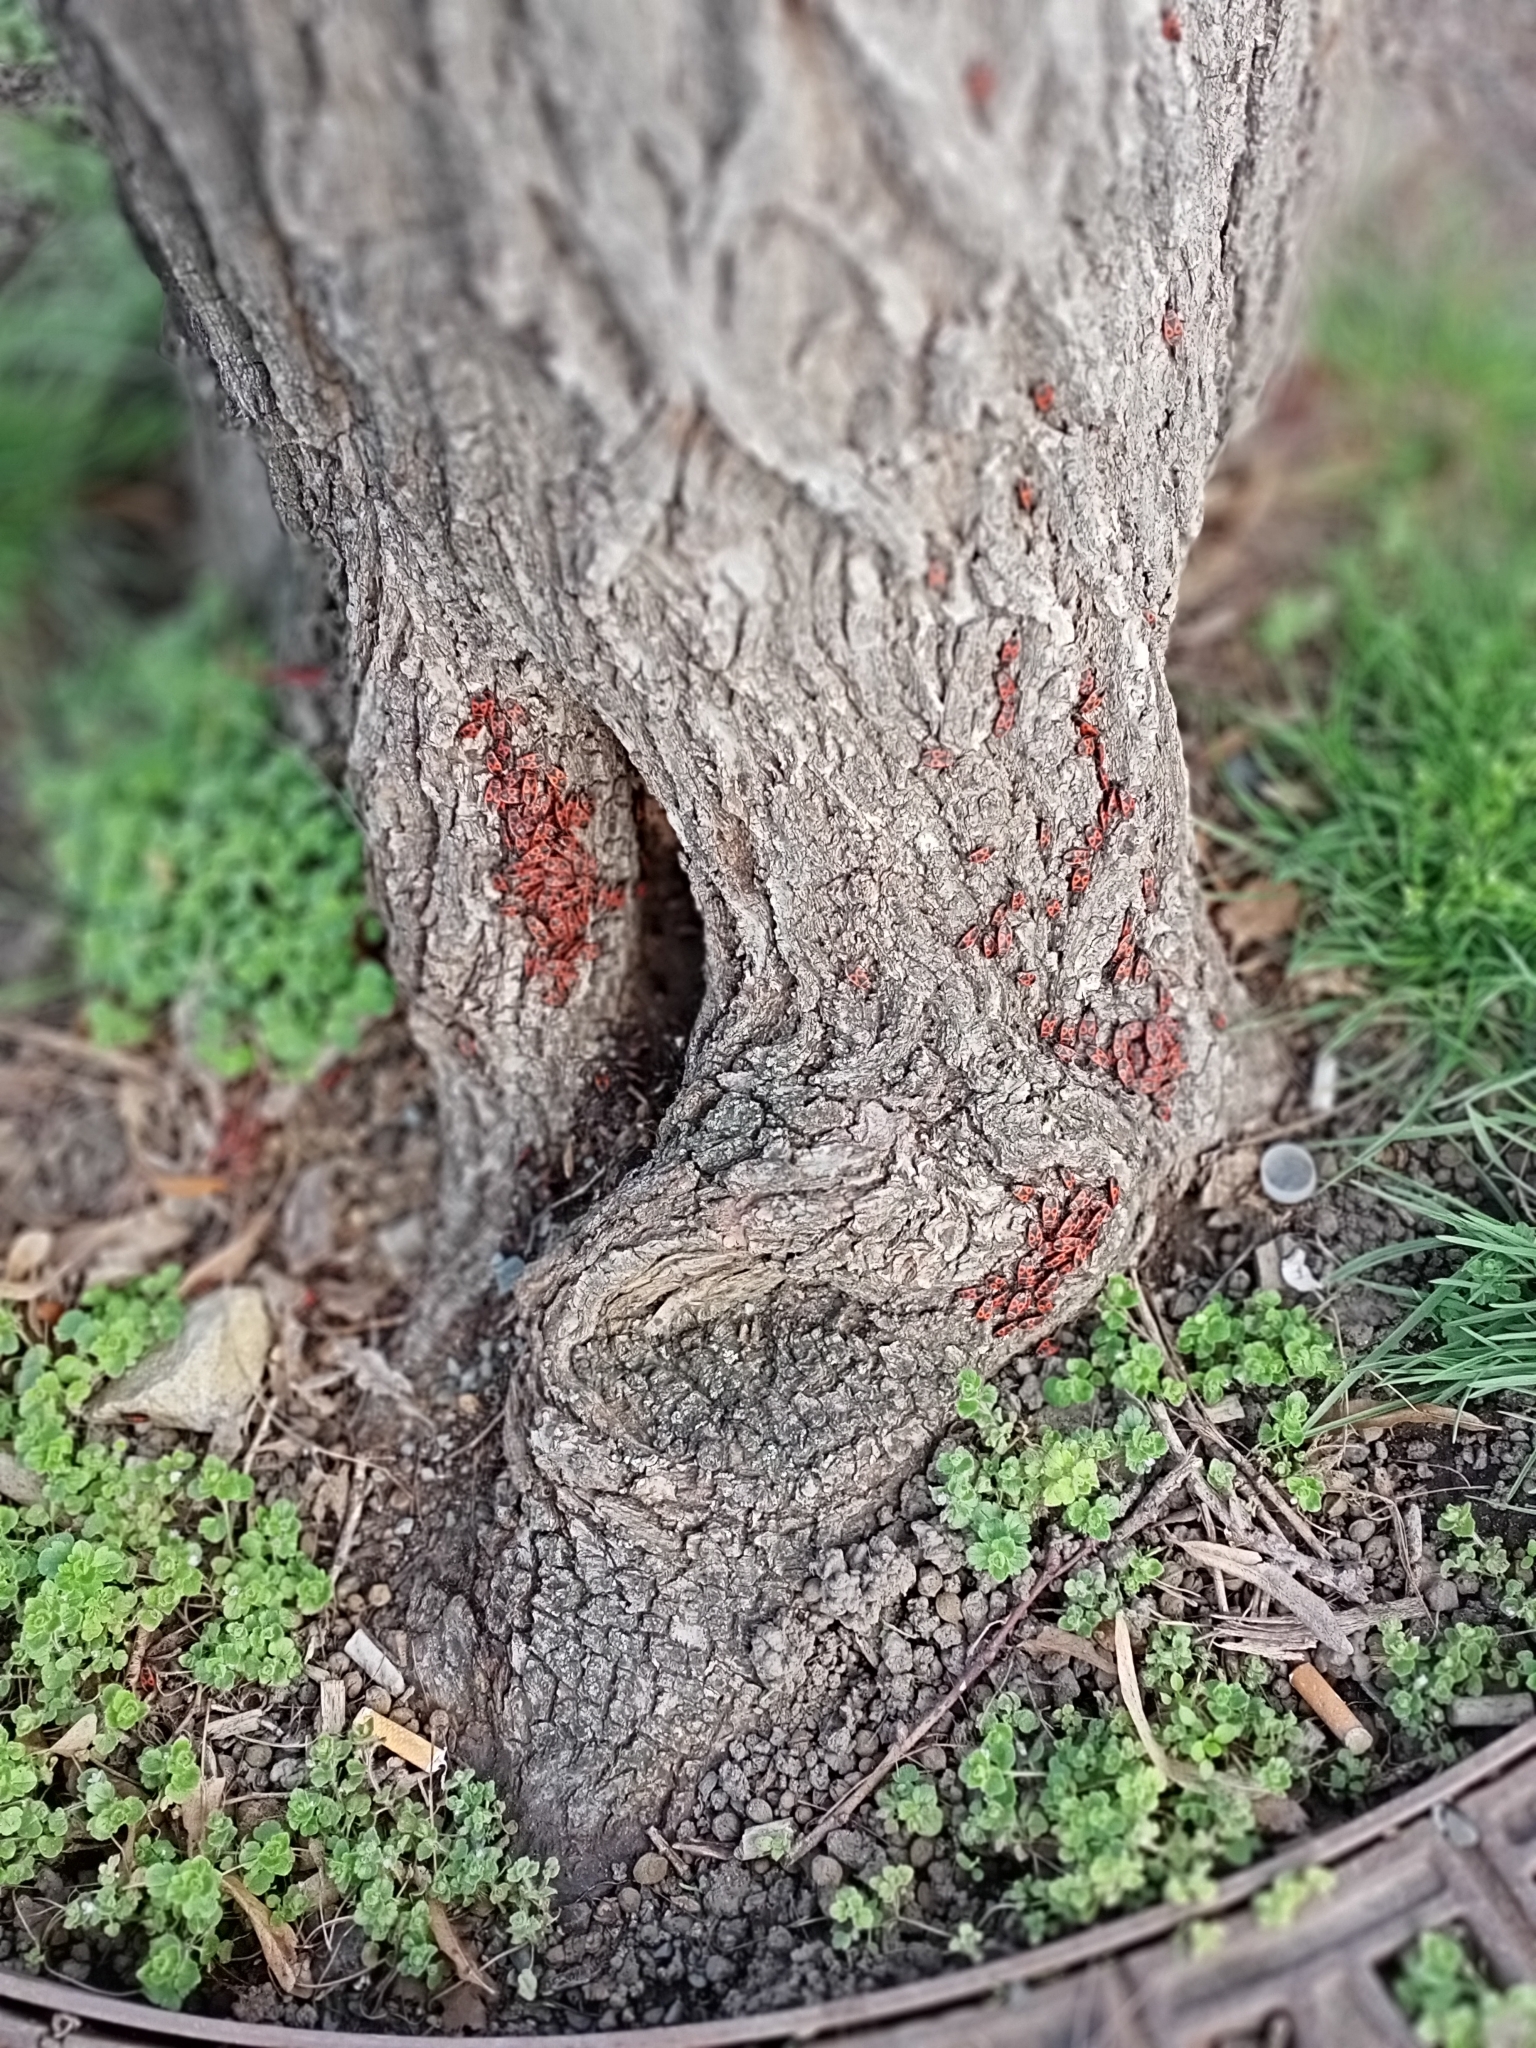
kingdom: Animalia
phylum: Arthropoda
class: Insecta
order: Hemiptera
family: Pyrrhocoridae
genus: Pyrrhocoris
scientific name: Pyrrhocoris apterus
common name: Firebug
